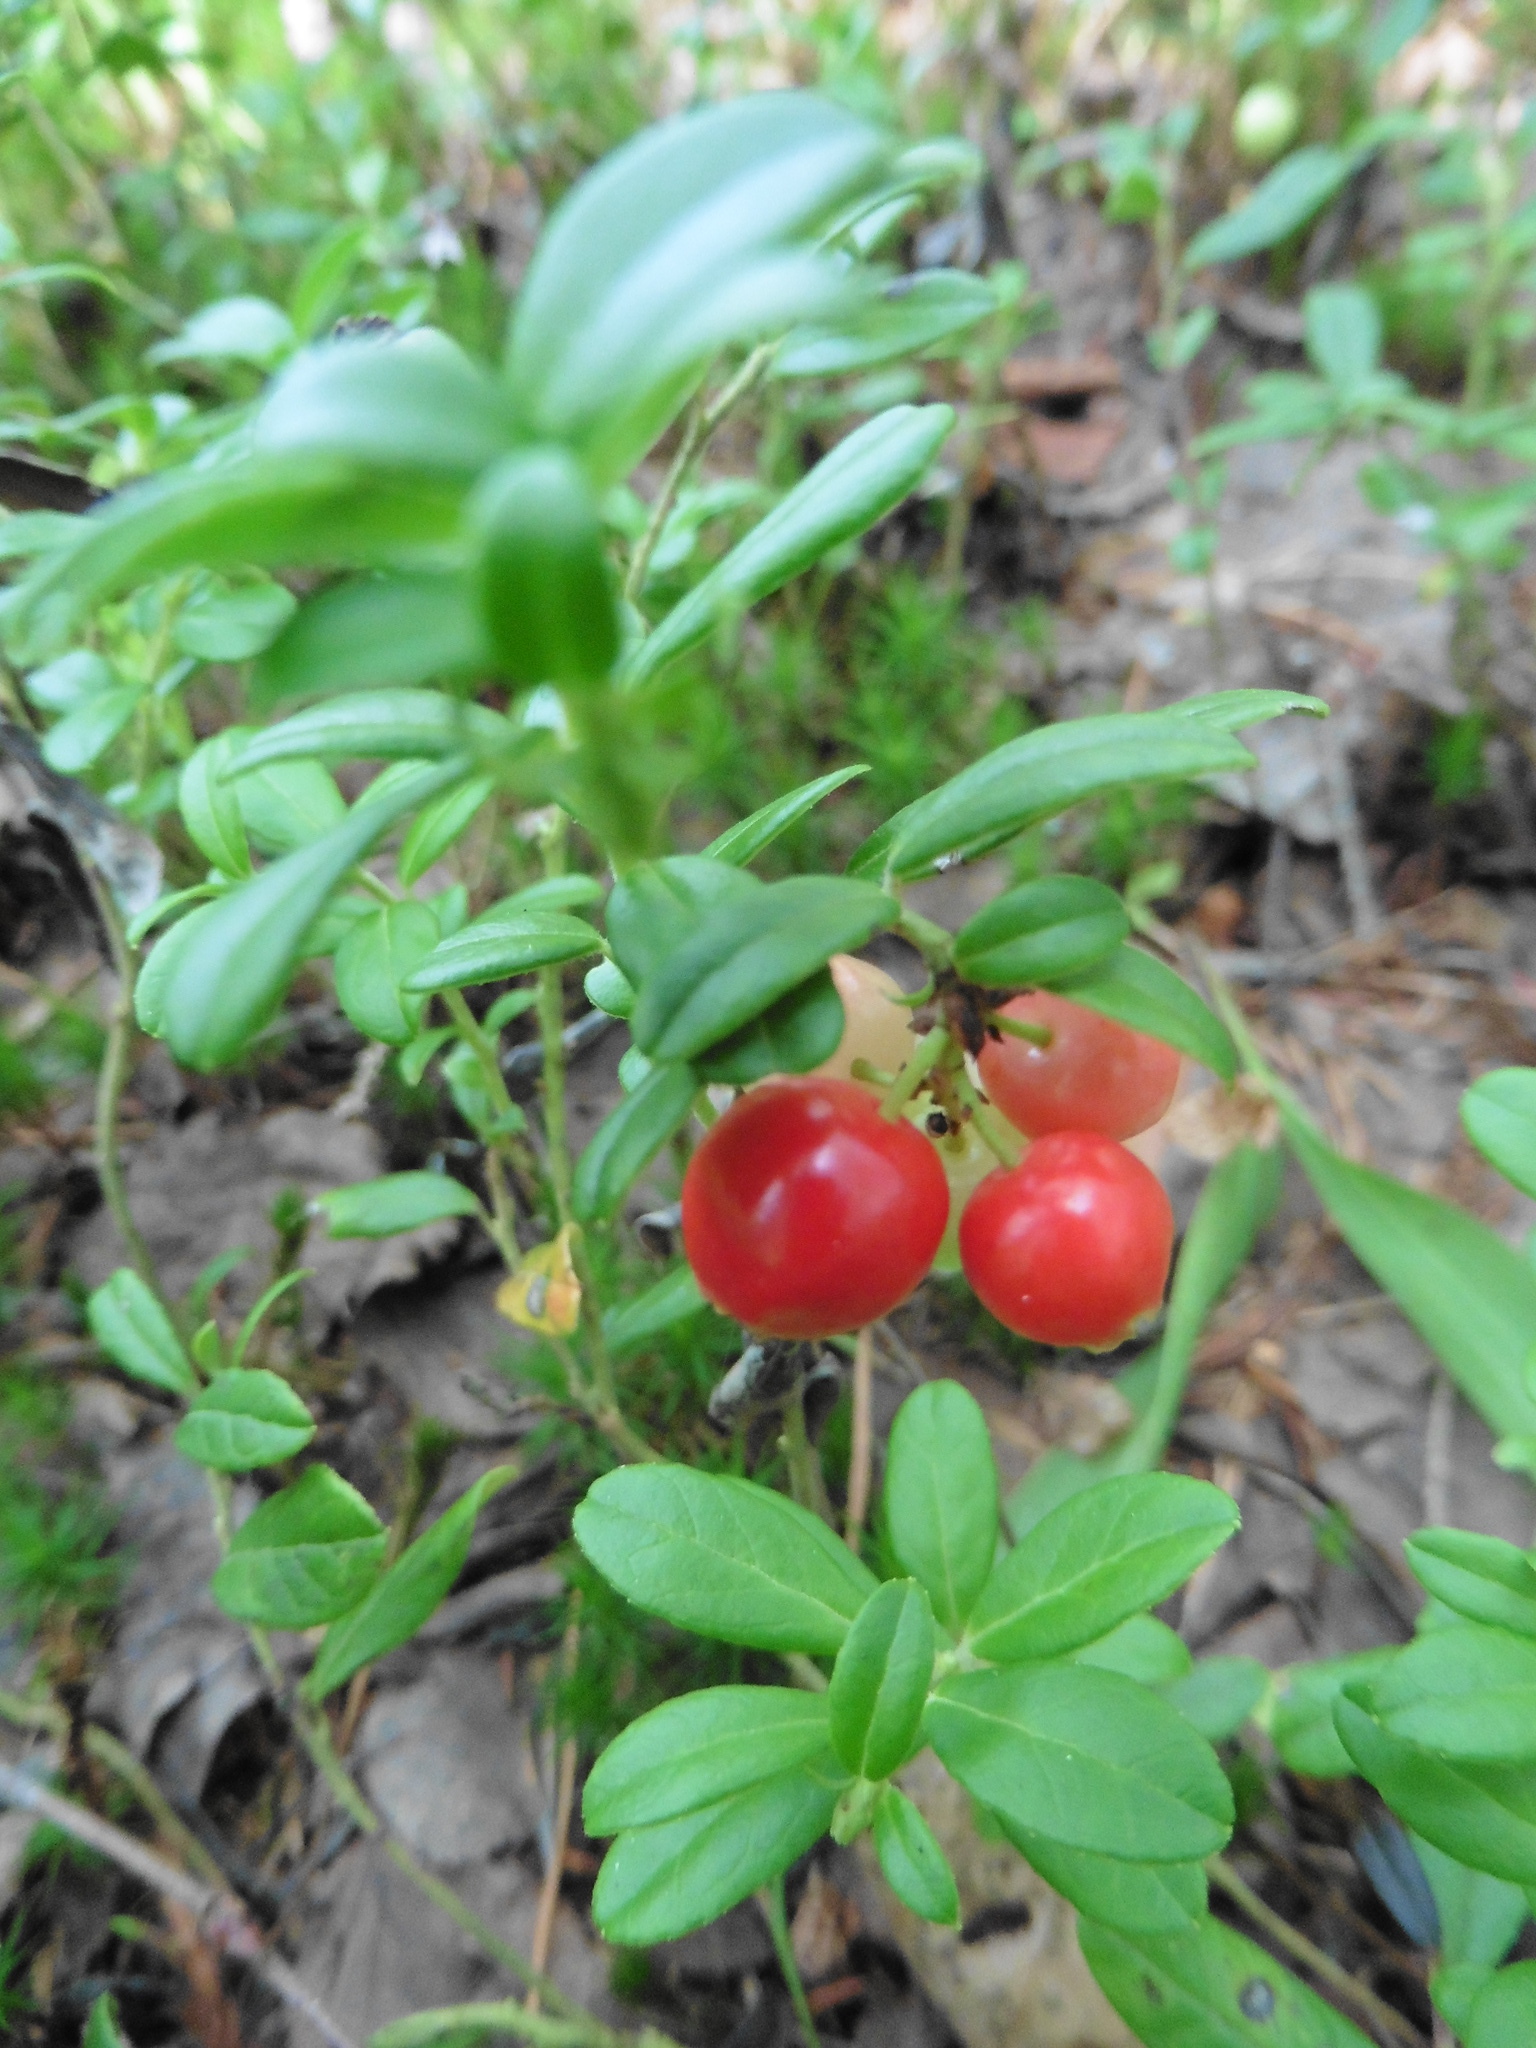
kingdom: Plantae
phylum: Tracheophyta
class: Magnoliopsida
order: Ericales
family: Ericaceae
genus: Vaccinium
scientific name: Vaccinium vitis-idaea
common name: Cowberry
